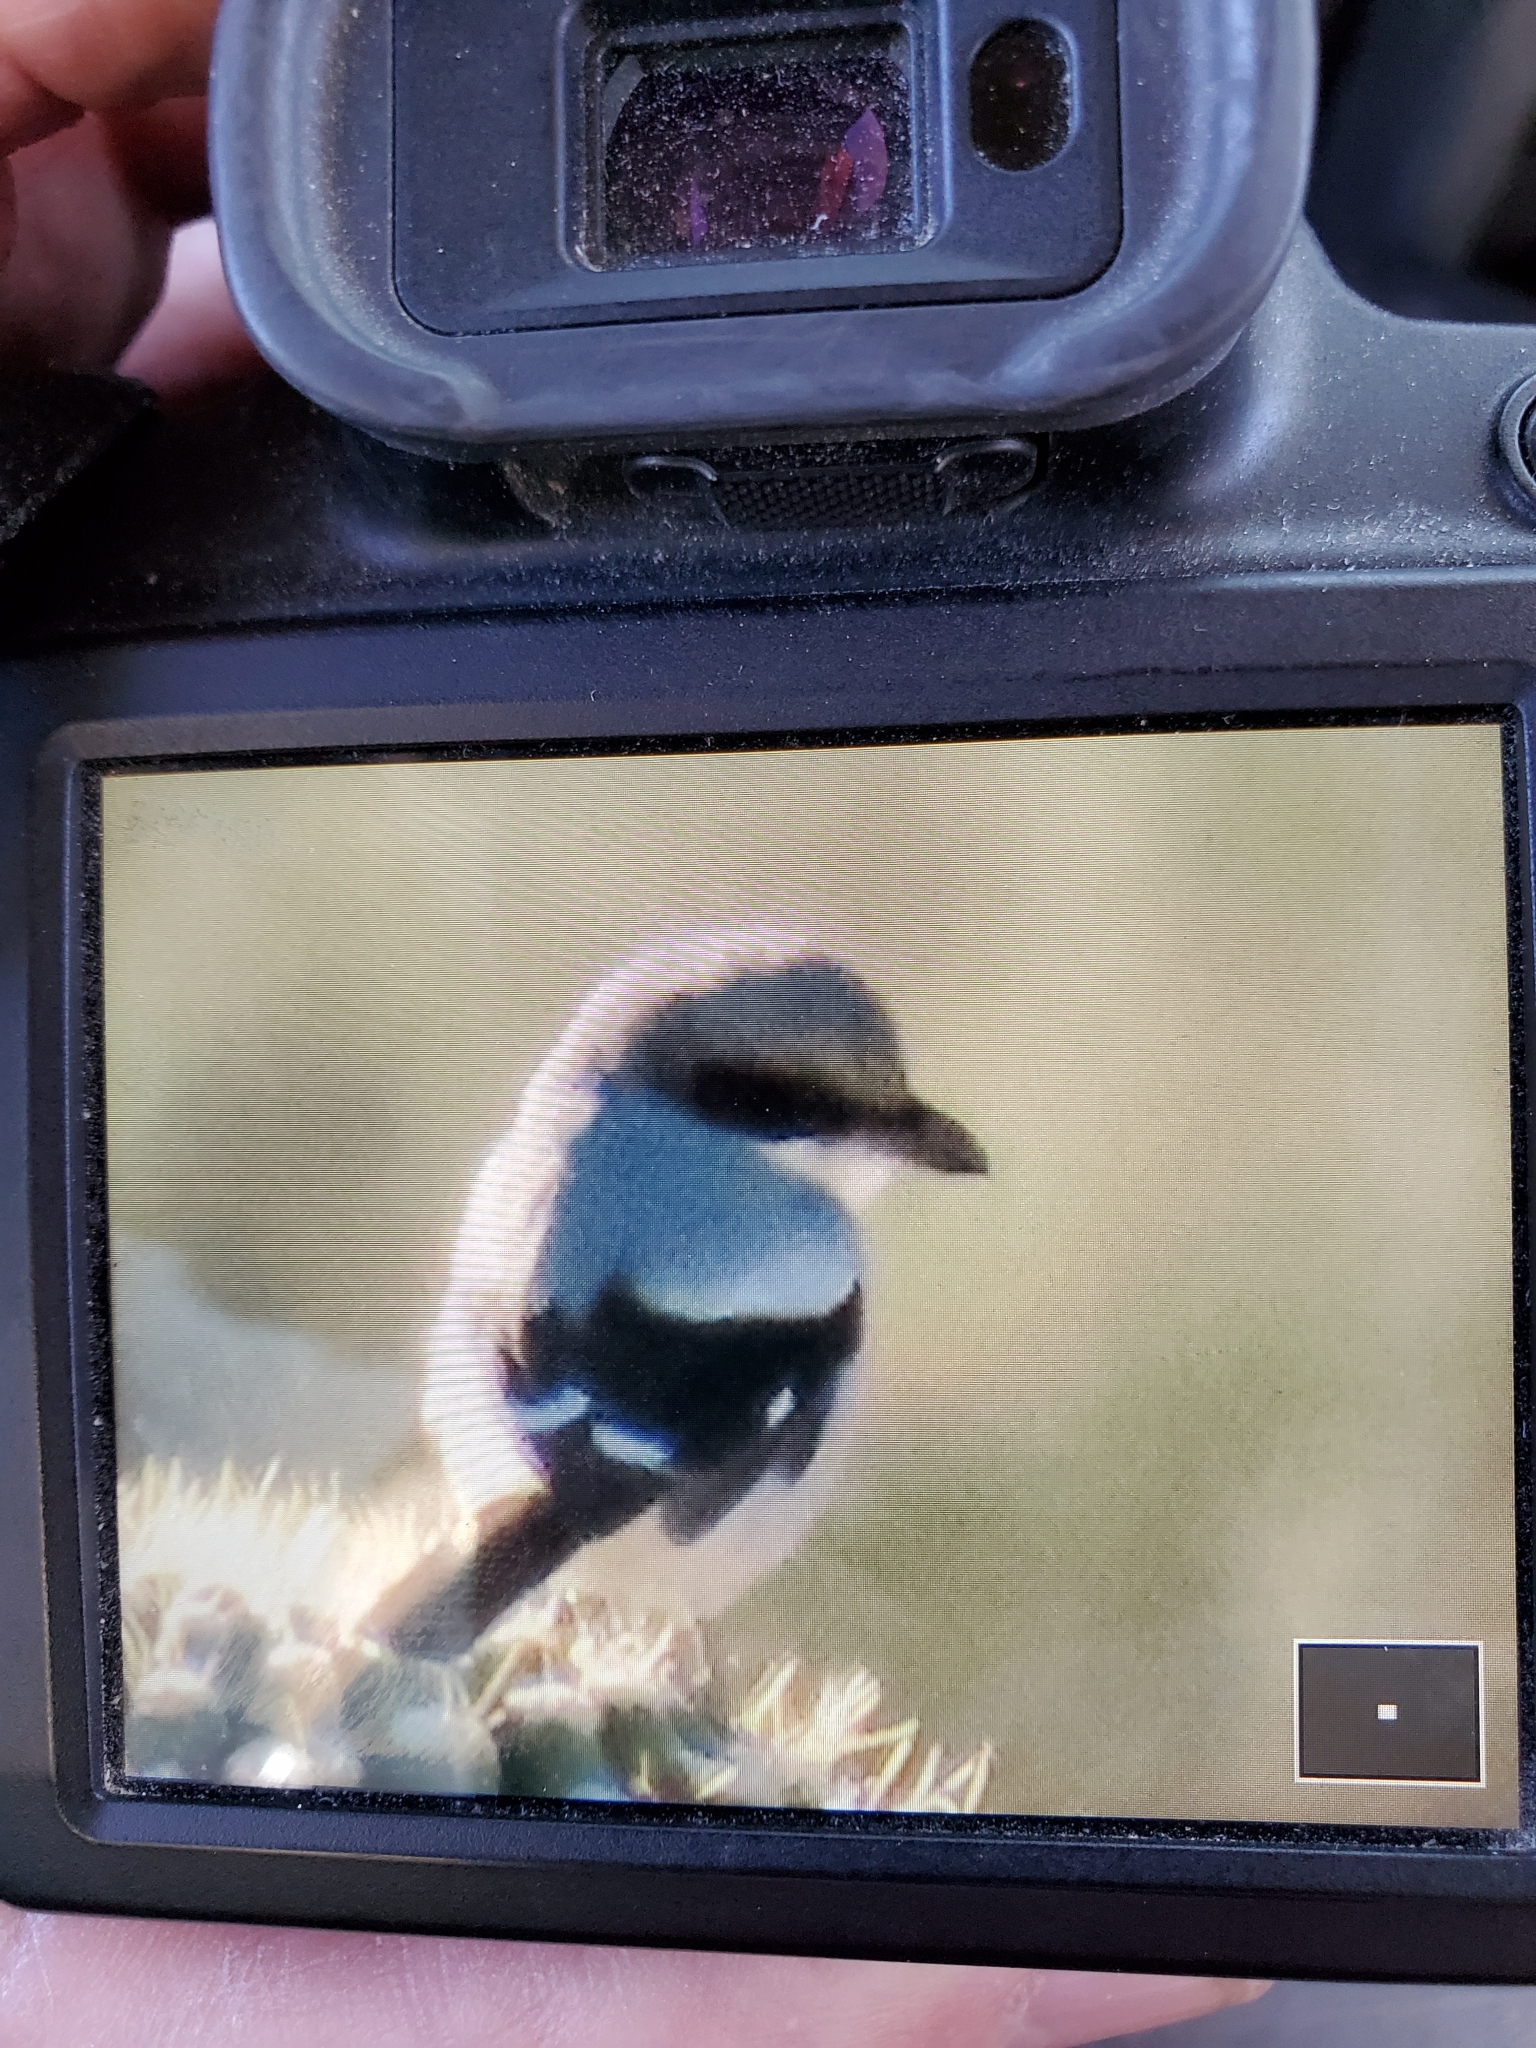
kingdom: Animalia
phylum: Chordata
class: Aves
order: Passeriformes
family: Laniidae
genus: Lanius
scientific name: Lanius ludovicianus
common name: Loggerhead shrike
